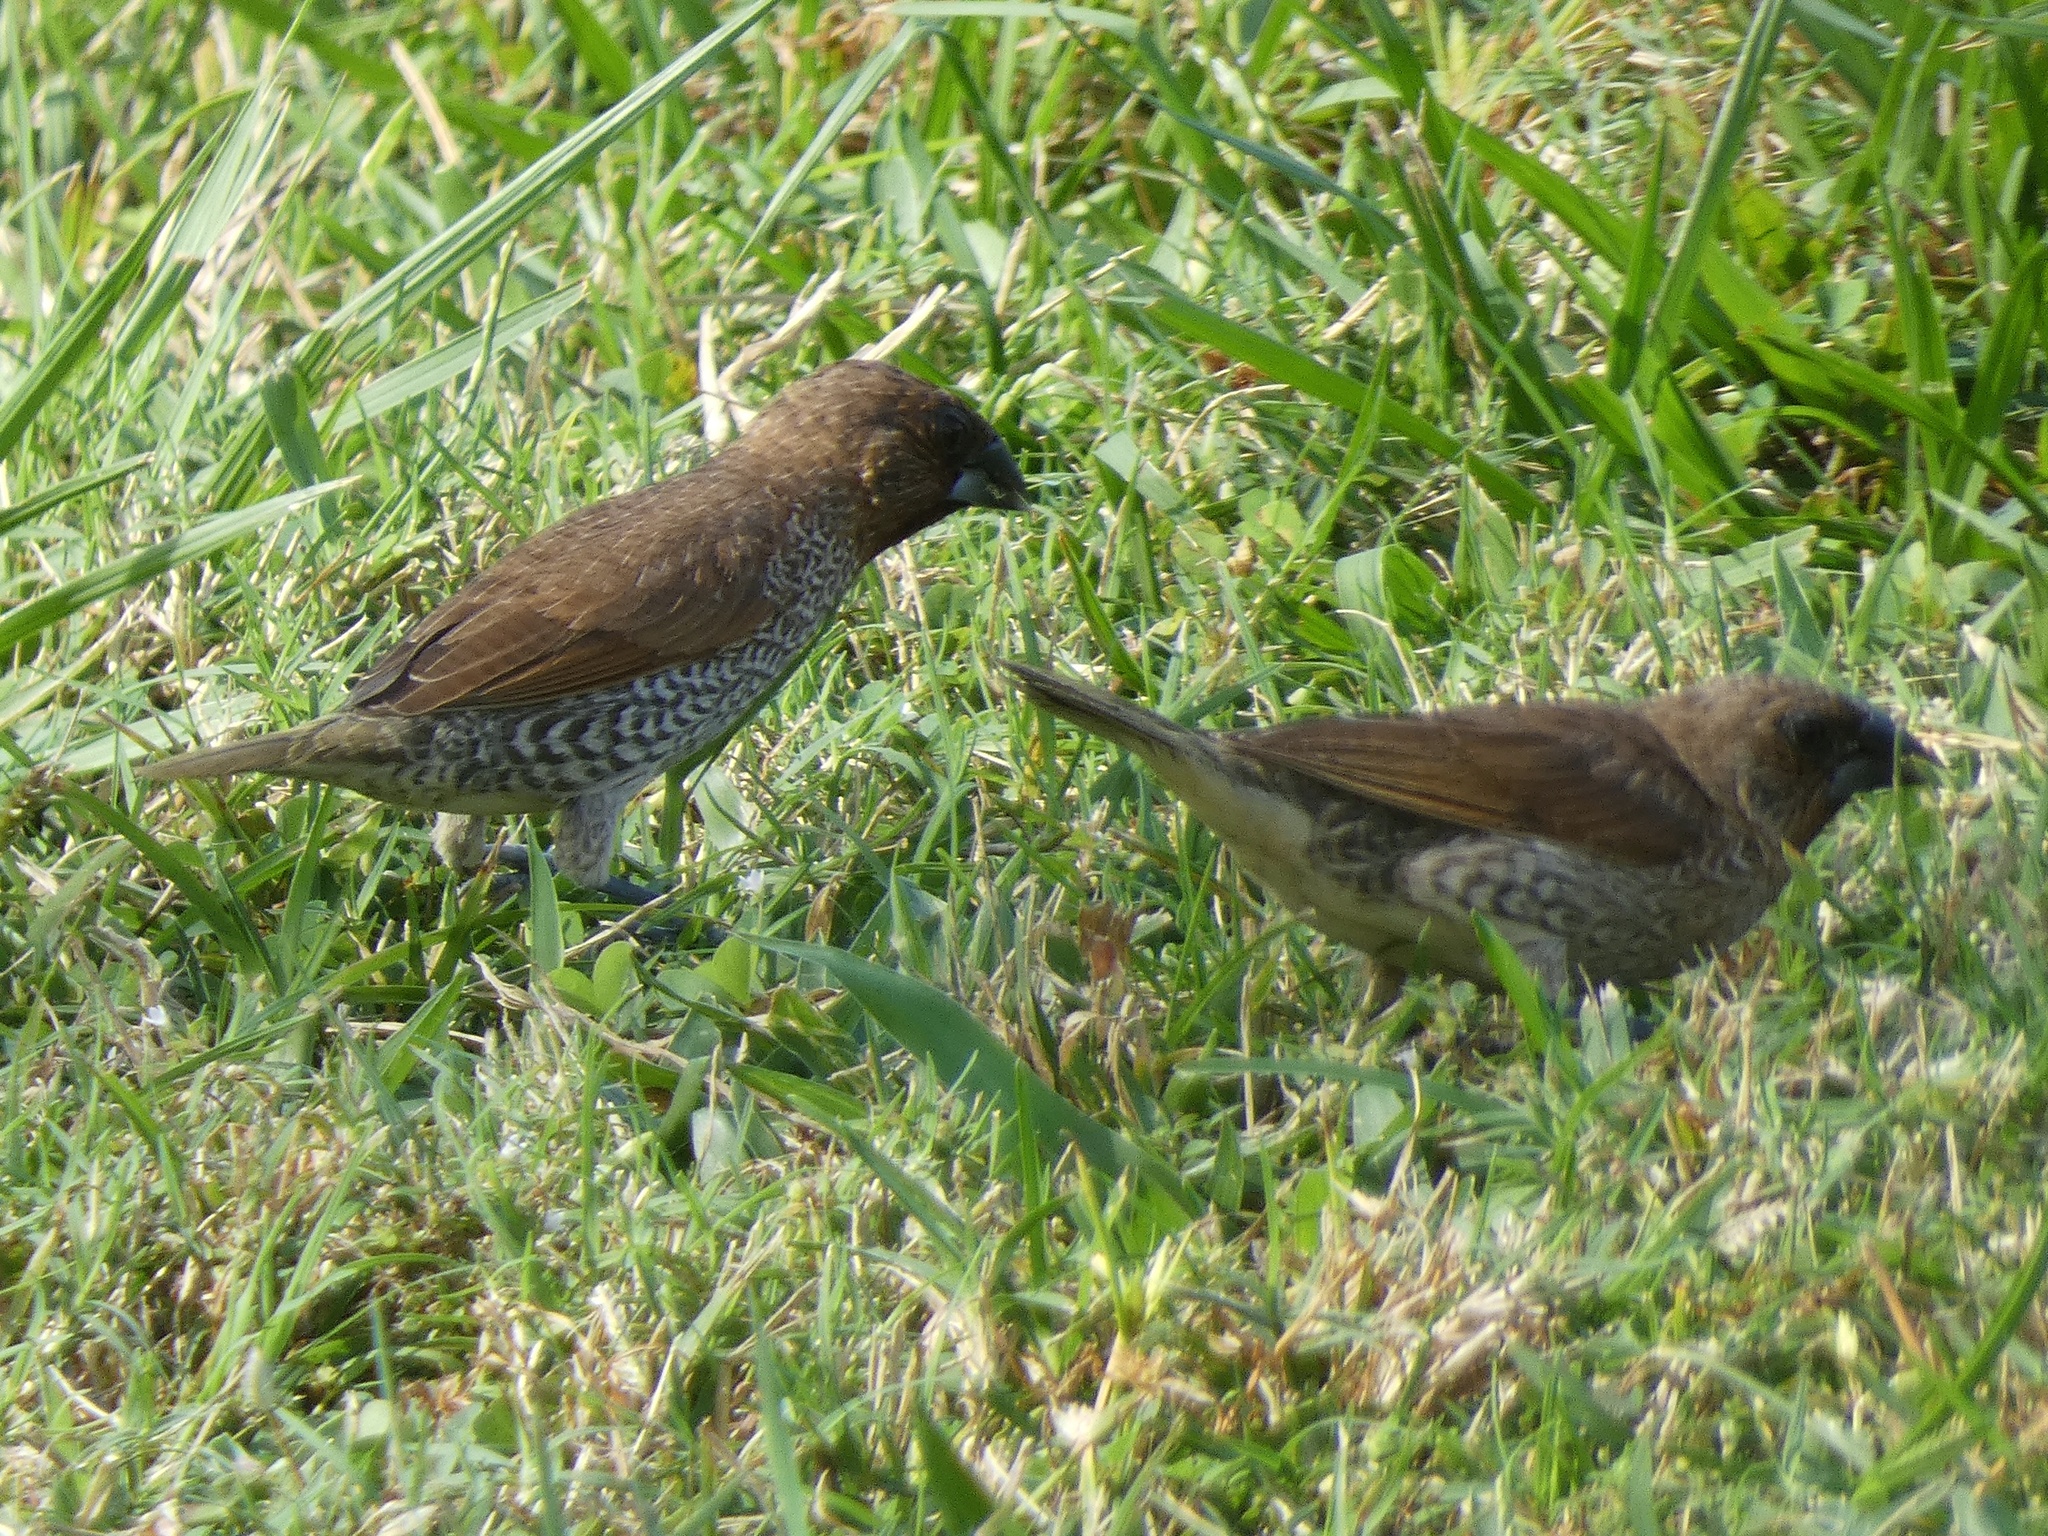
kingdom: Animalia
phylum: Chordata
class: Aves
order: Passeriformes
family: Estrildidae
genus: Lonchura
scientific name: Lonchura punctulata
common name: Scaly-breasted munia
